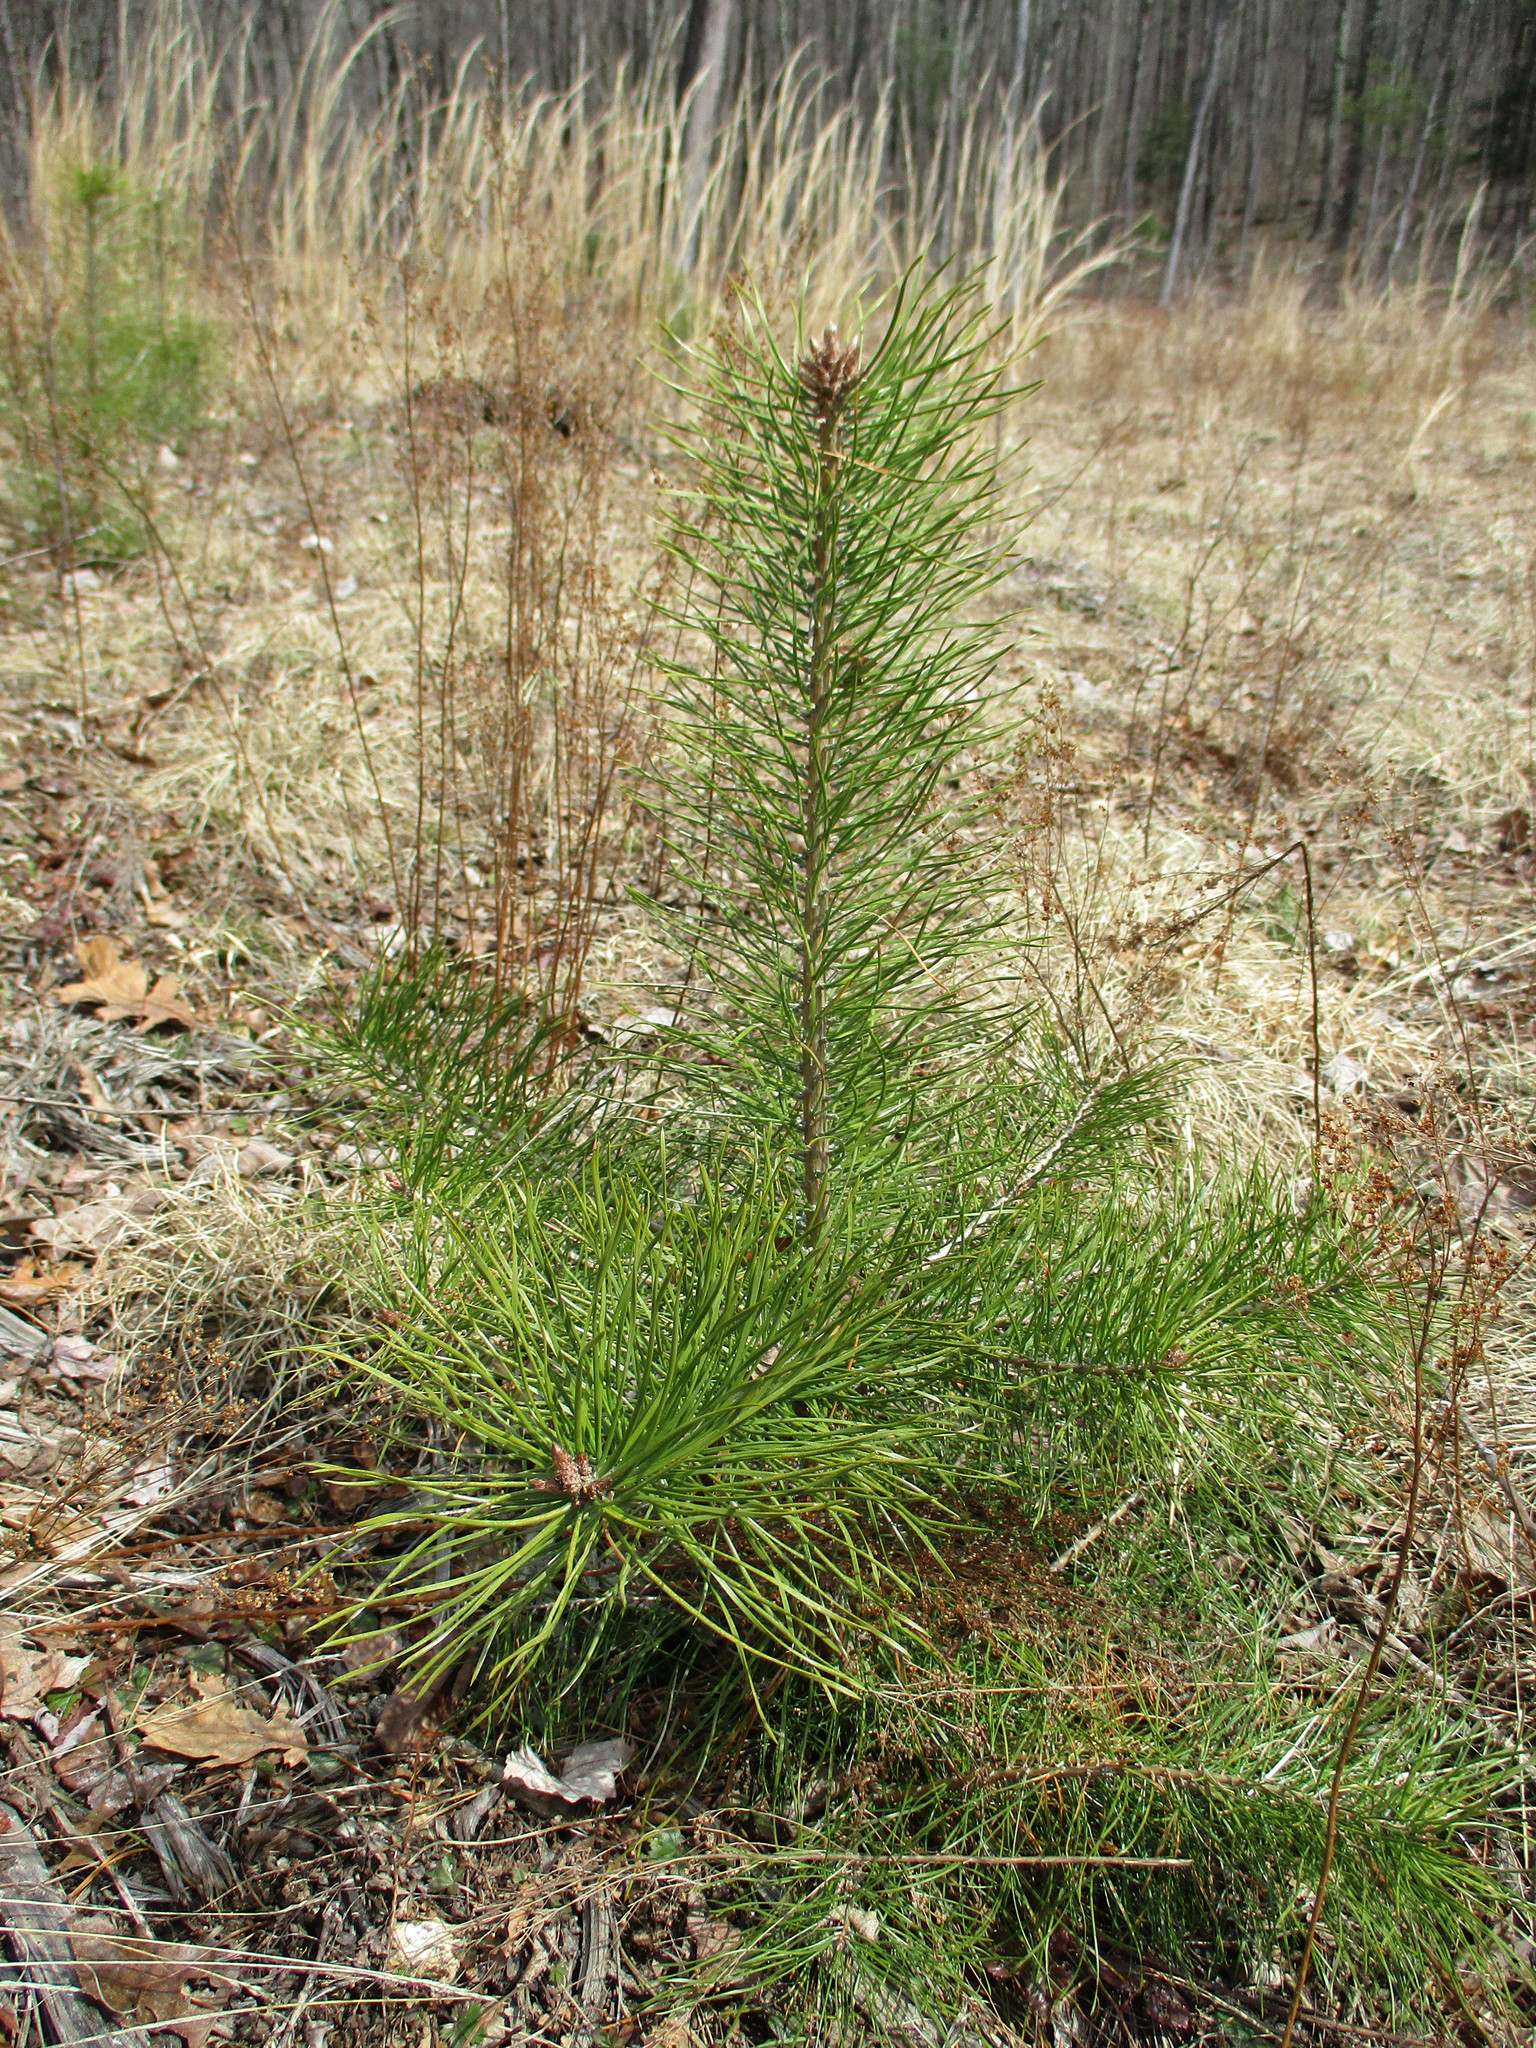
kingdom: Plantae
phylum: Tracheophyta
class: Pinopsida
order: Pinales
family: Pinaceae
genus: Pinus
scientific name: Pinus rigida
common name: Pitch pine
